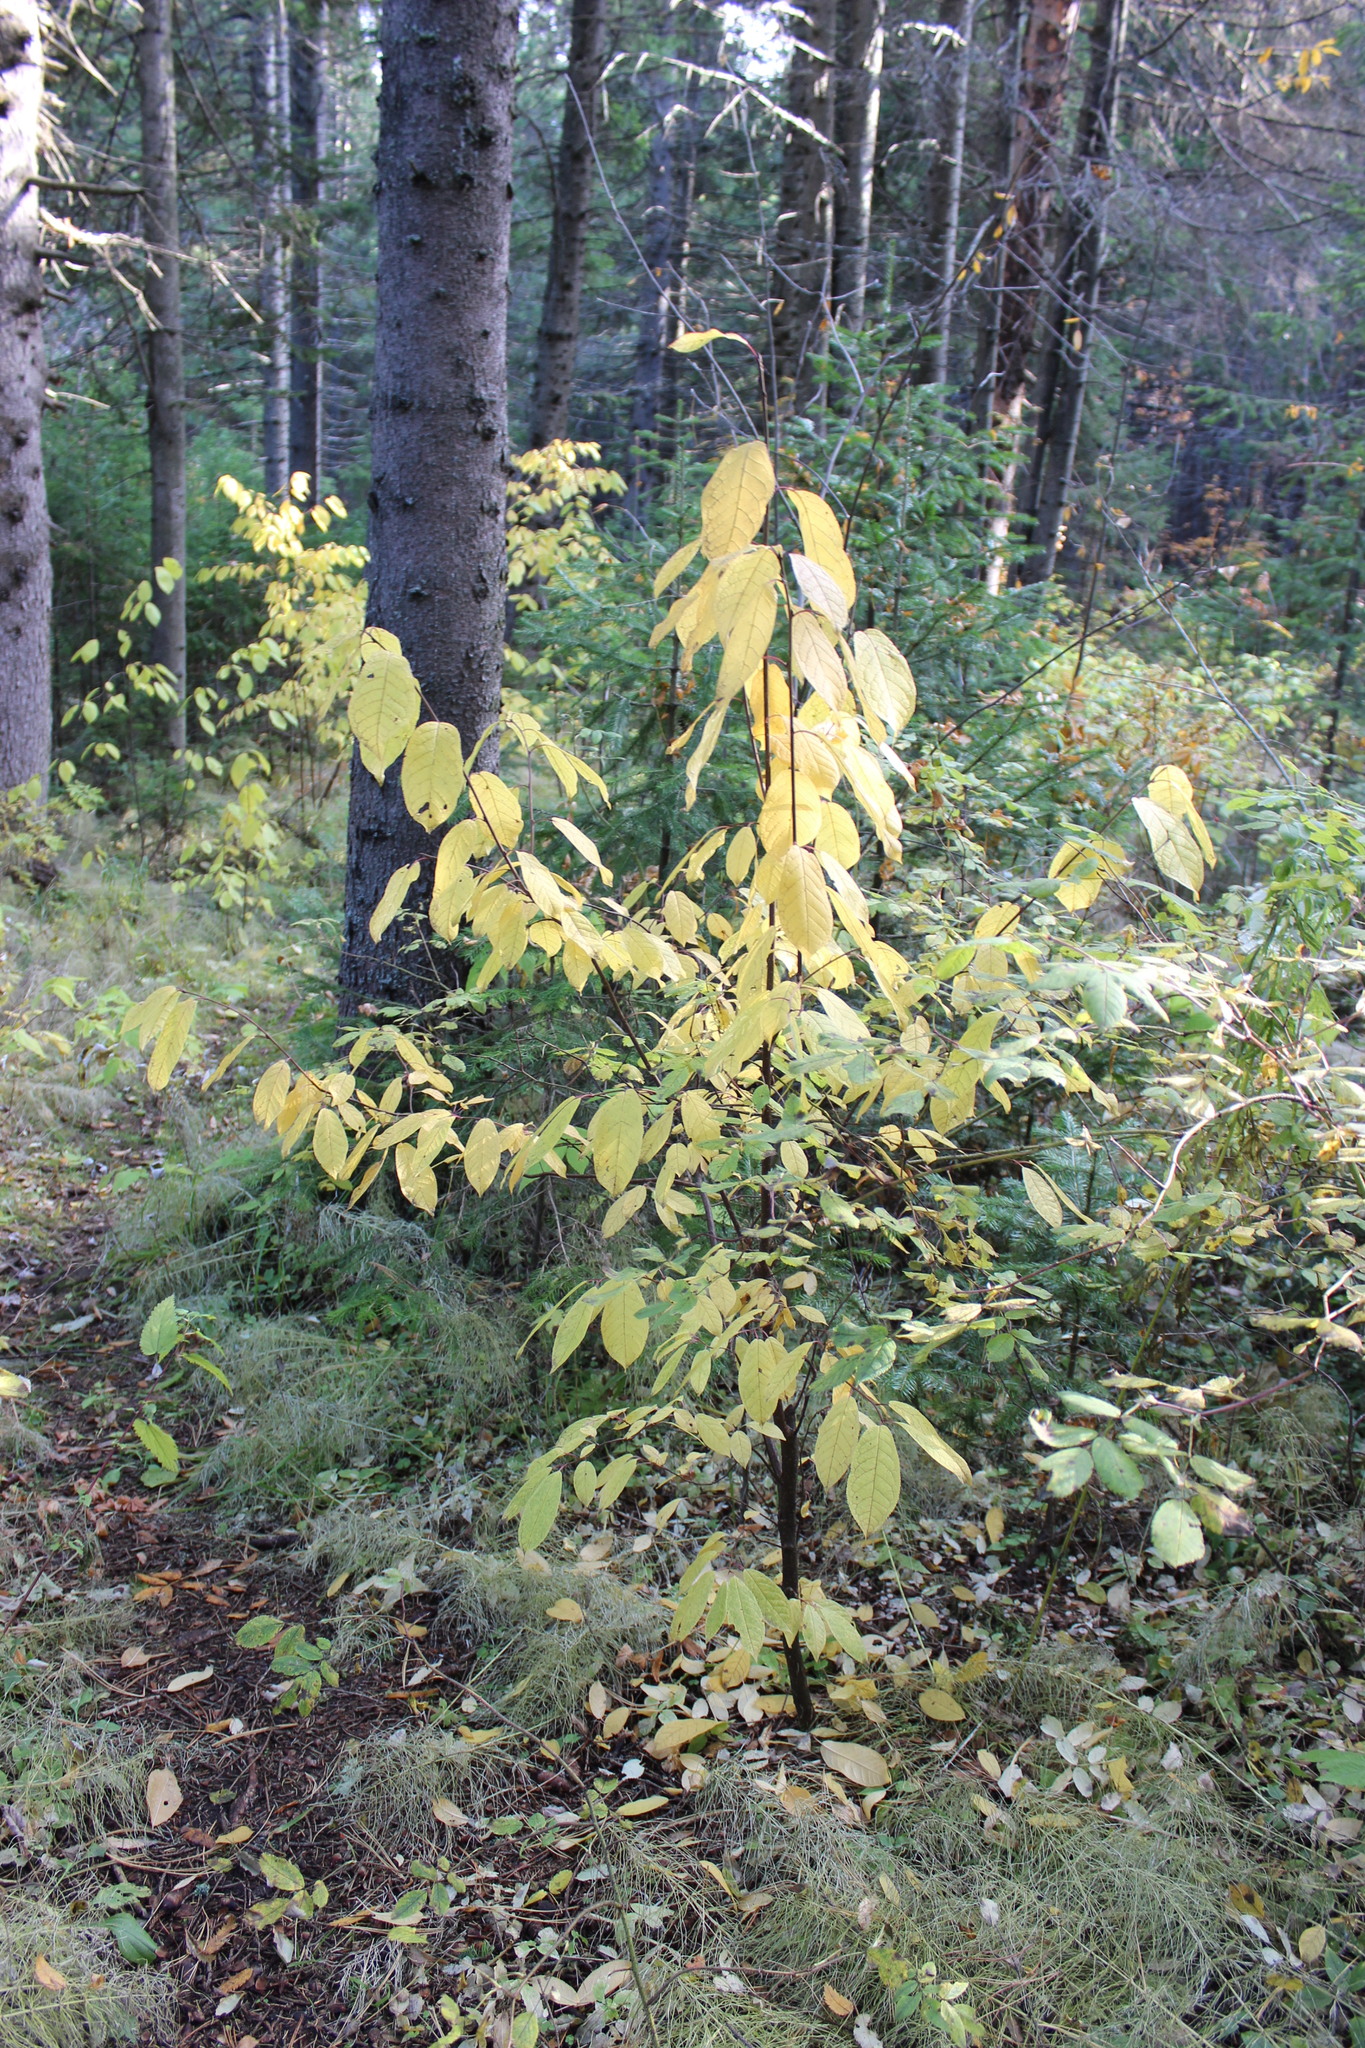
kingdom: Plantae
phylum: Tracheophyta
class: Magnoliopsida
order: Rosales
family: Rosaceae
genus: Prunus
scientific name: Prunus padus
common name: Bird cherry
